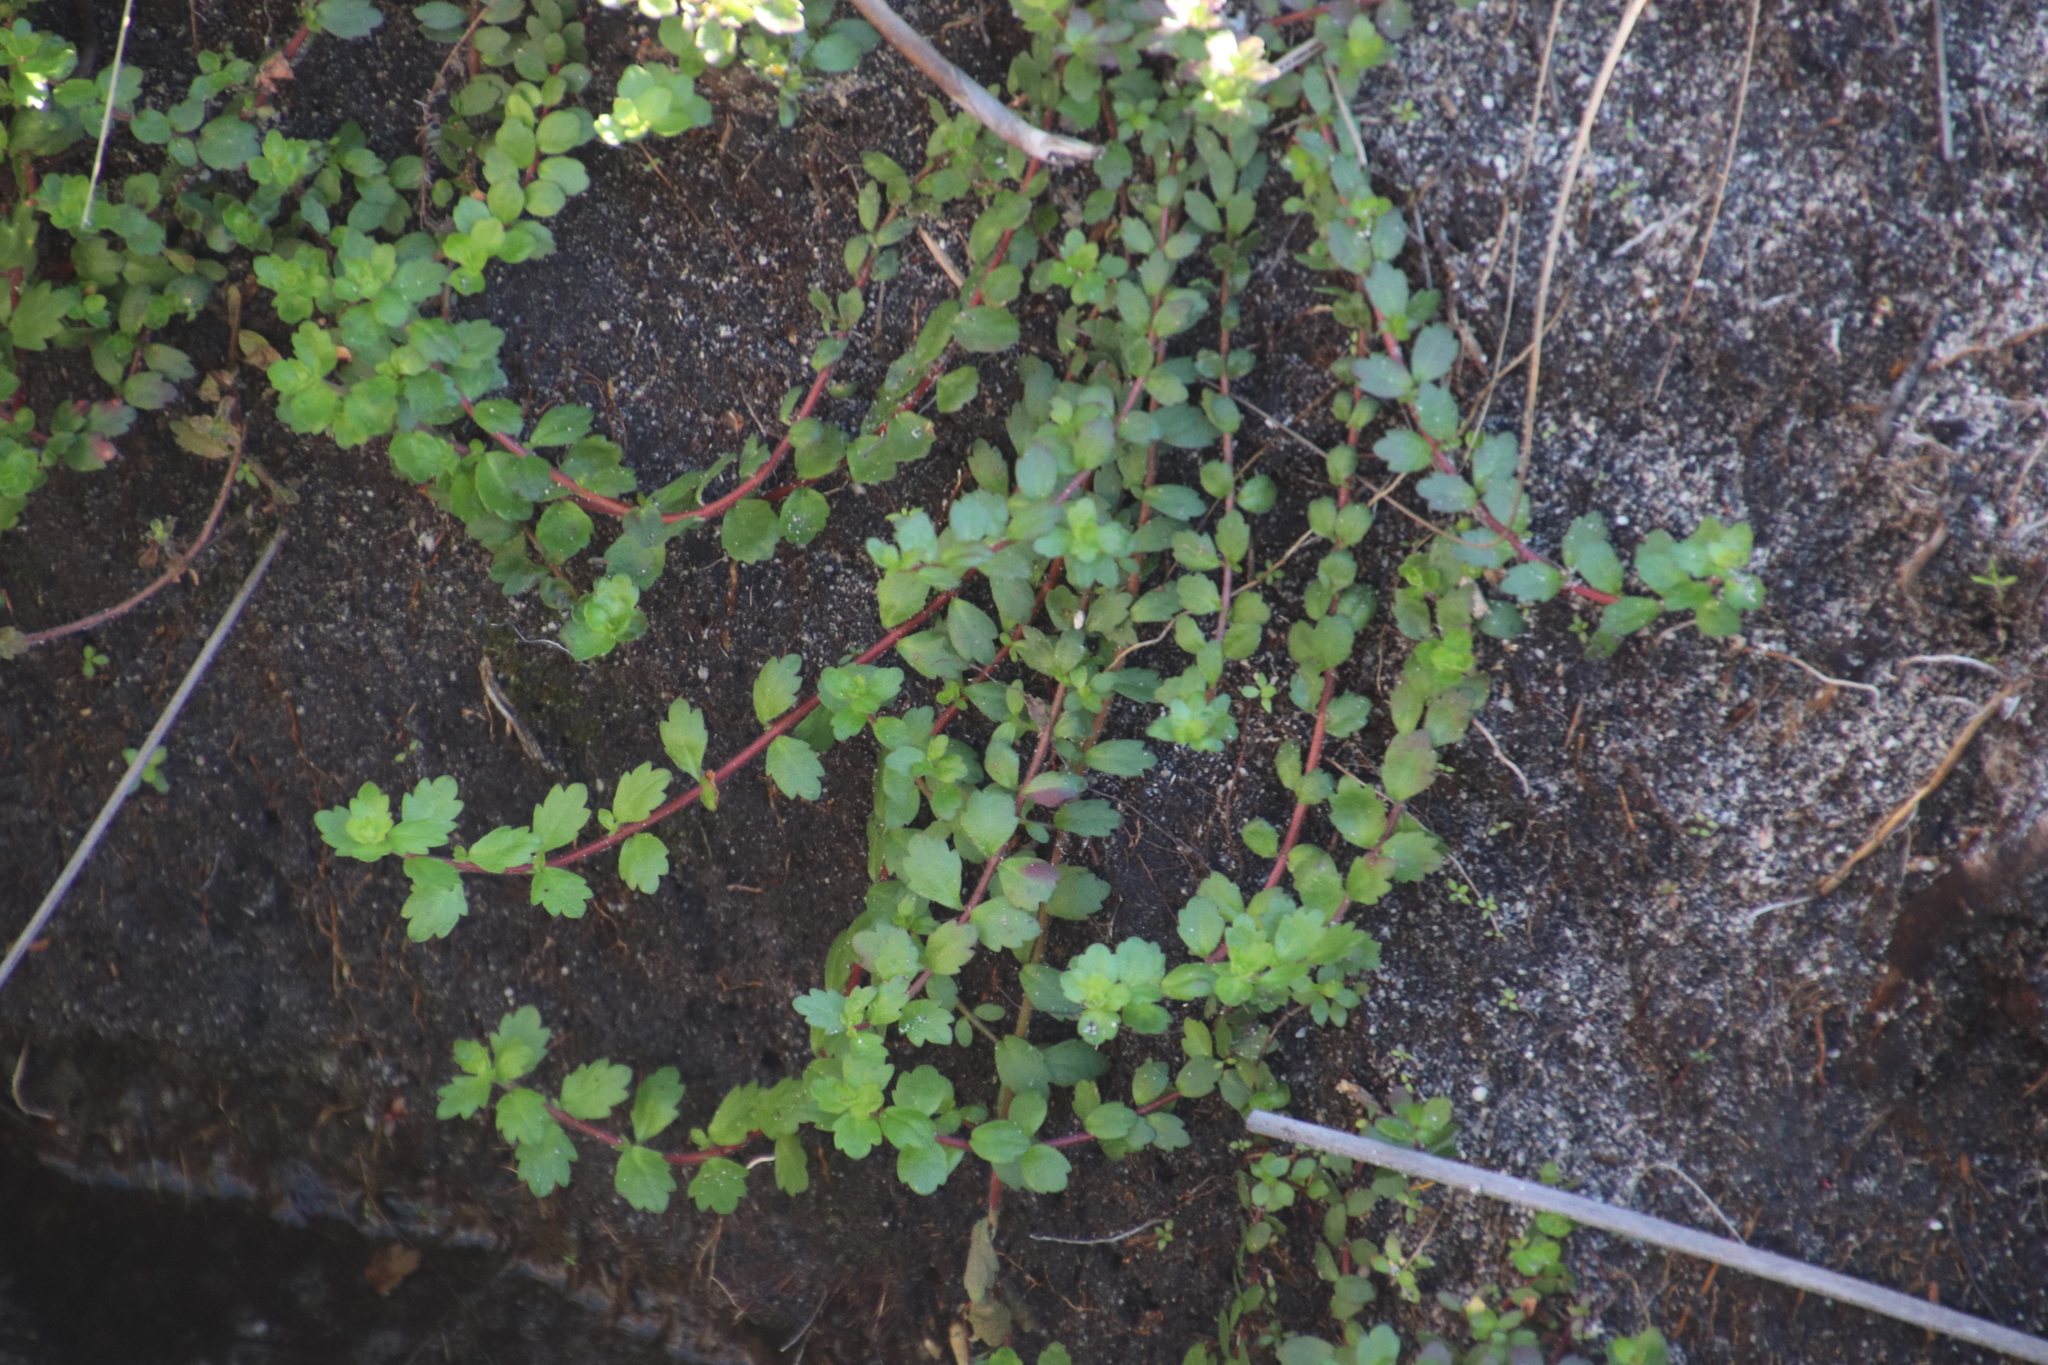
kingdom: Plantae
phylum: Tracheophyta
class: Magnoliopsida
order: Saxifragales
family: Haloragaceae
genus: Laurembergia
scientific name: Laurembergia repens
